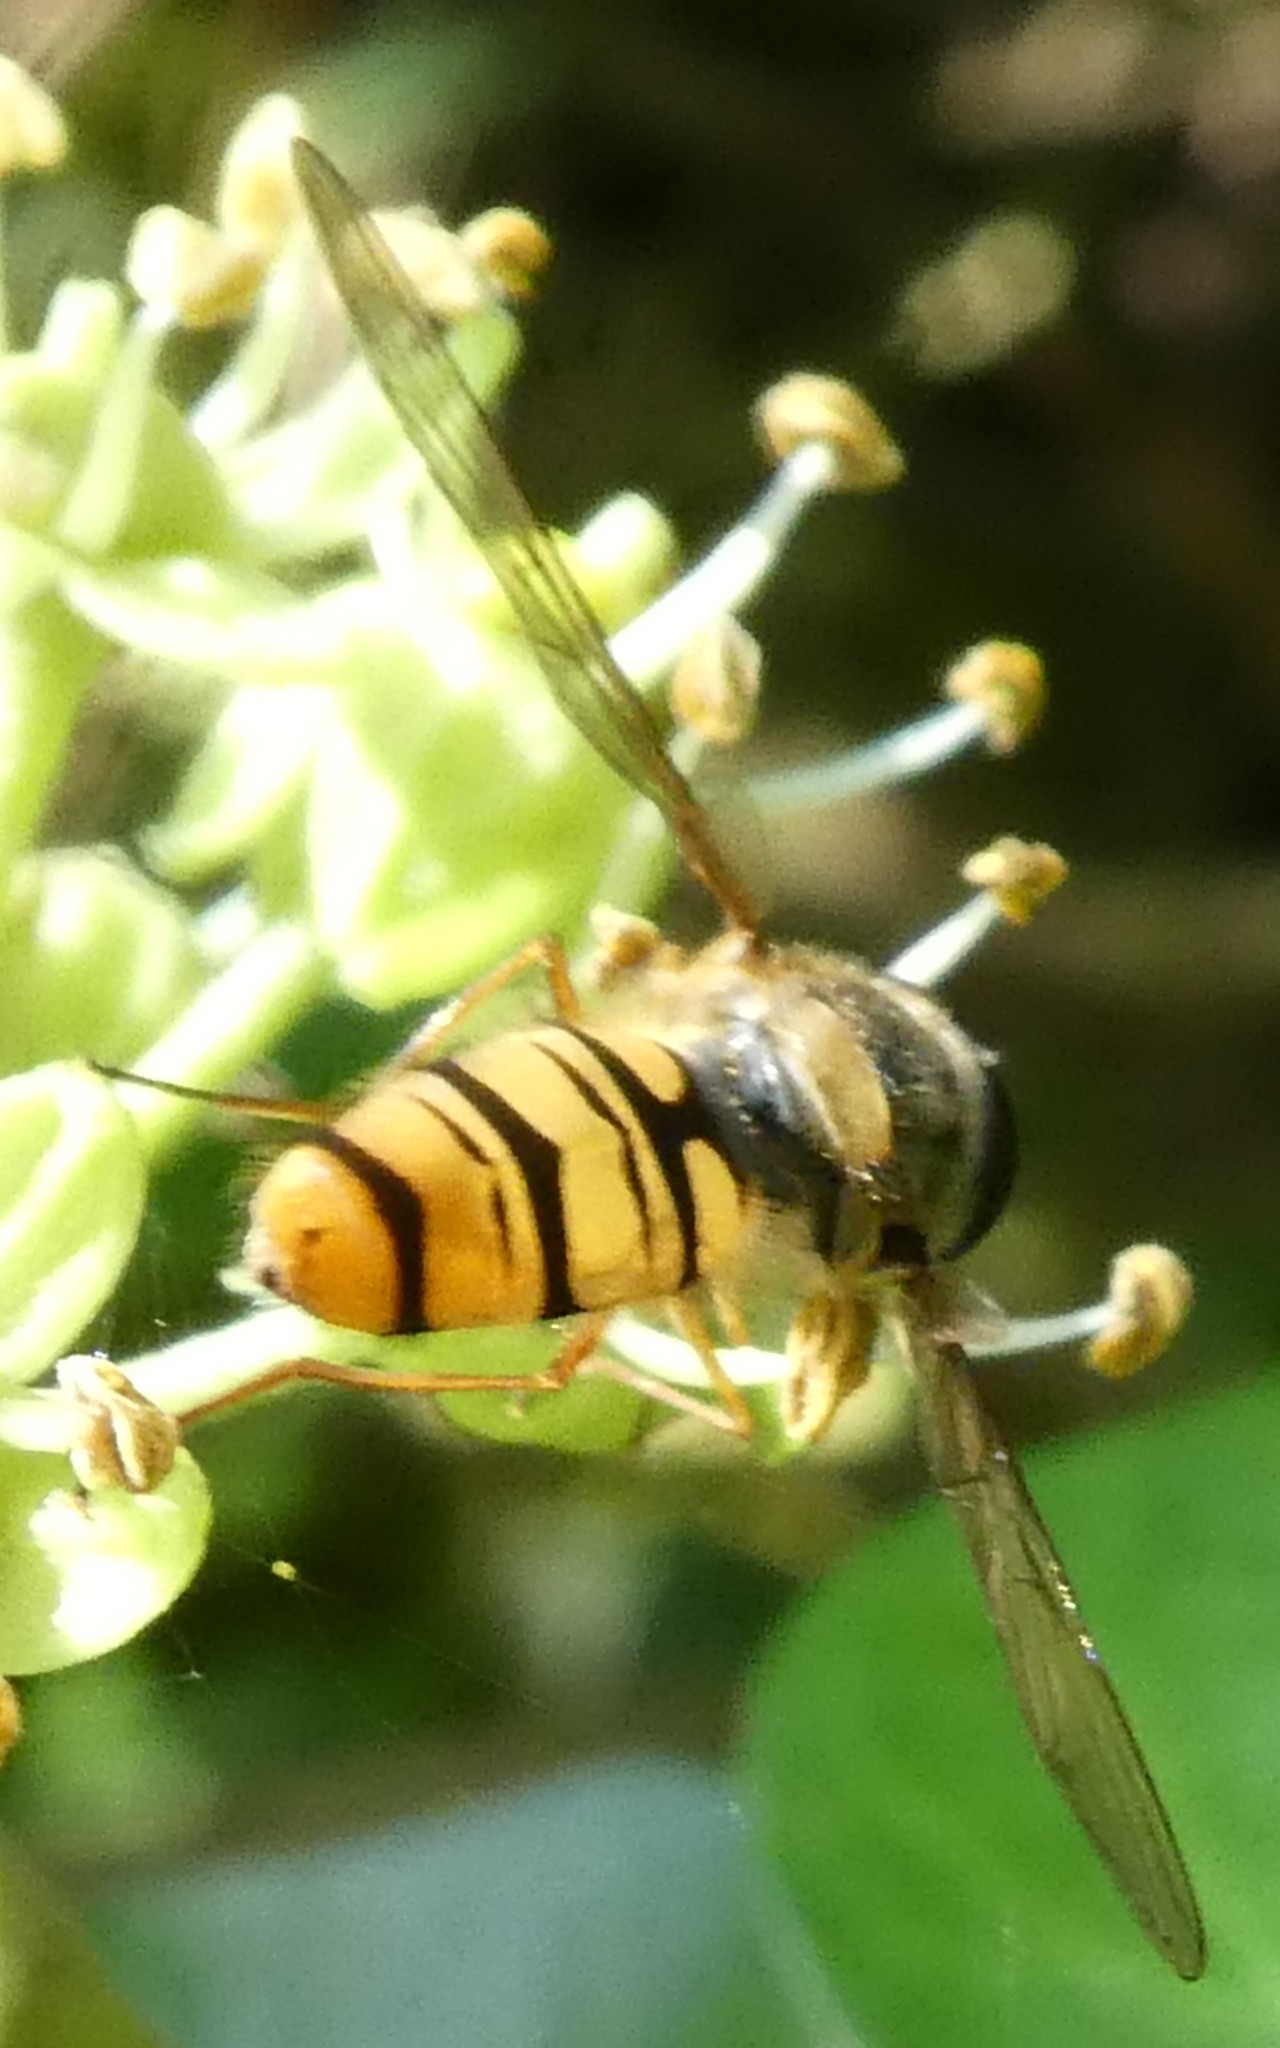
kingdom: Animalia
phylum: Arthropoda
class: Insecta
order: Diptera
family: Syrphidae
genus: Episyrphus
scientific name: Episyrphus balteatus
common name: Marmalade hoverfly
